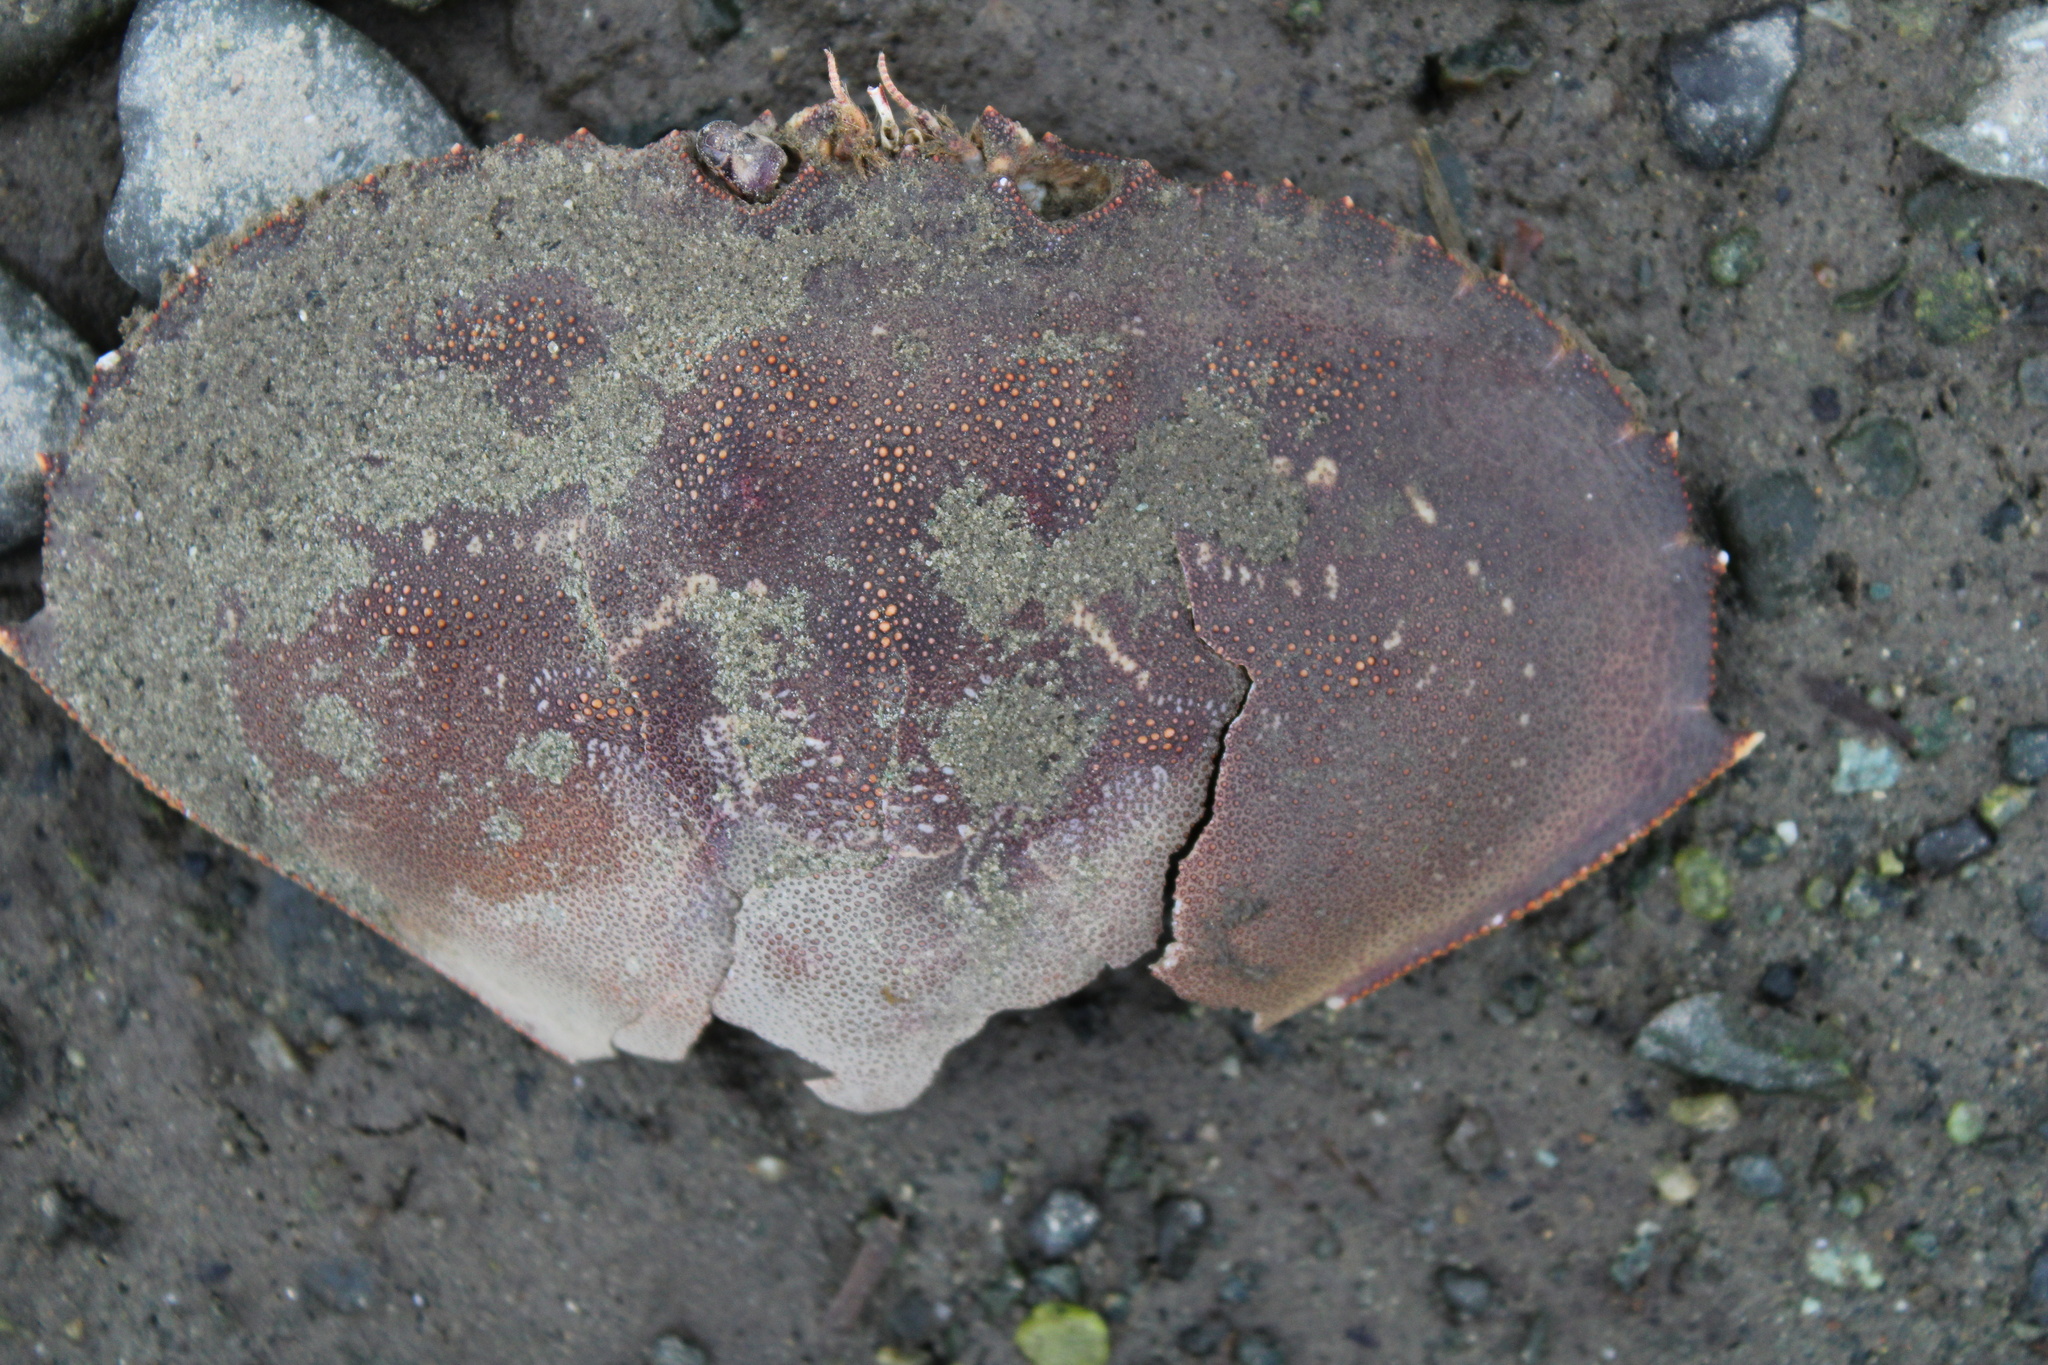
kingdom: Animalia
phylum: Arthropoda
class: Malacostraca
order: Decapoda
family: Cancridae
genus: Metacarcinus
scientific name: Metacarcinus magister
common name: Californian crab
